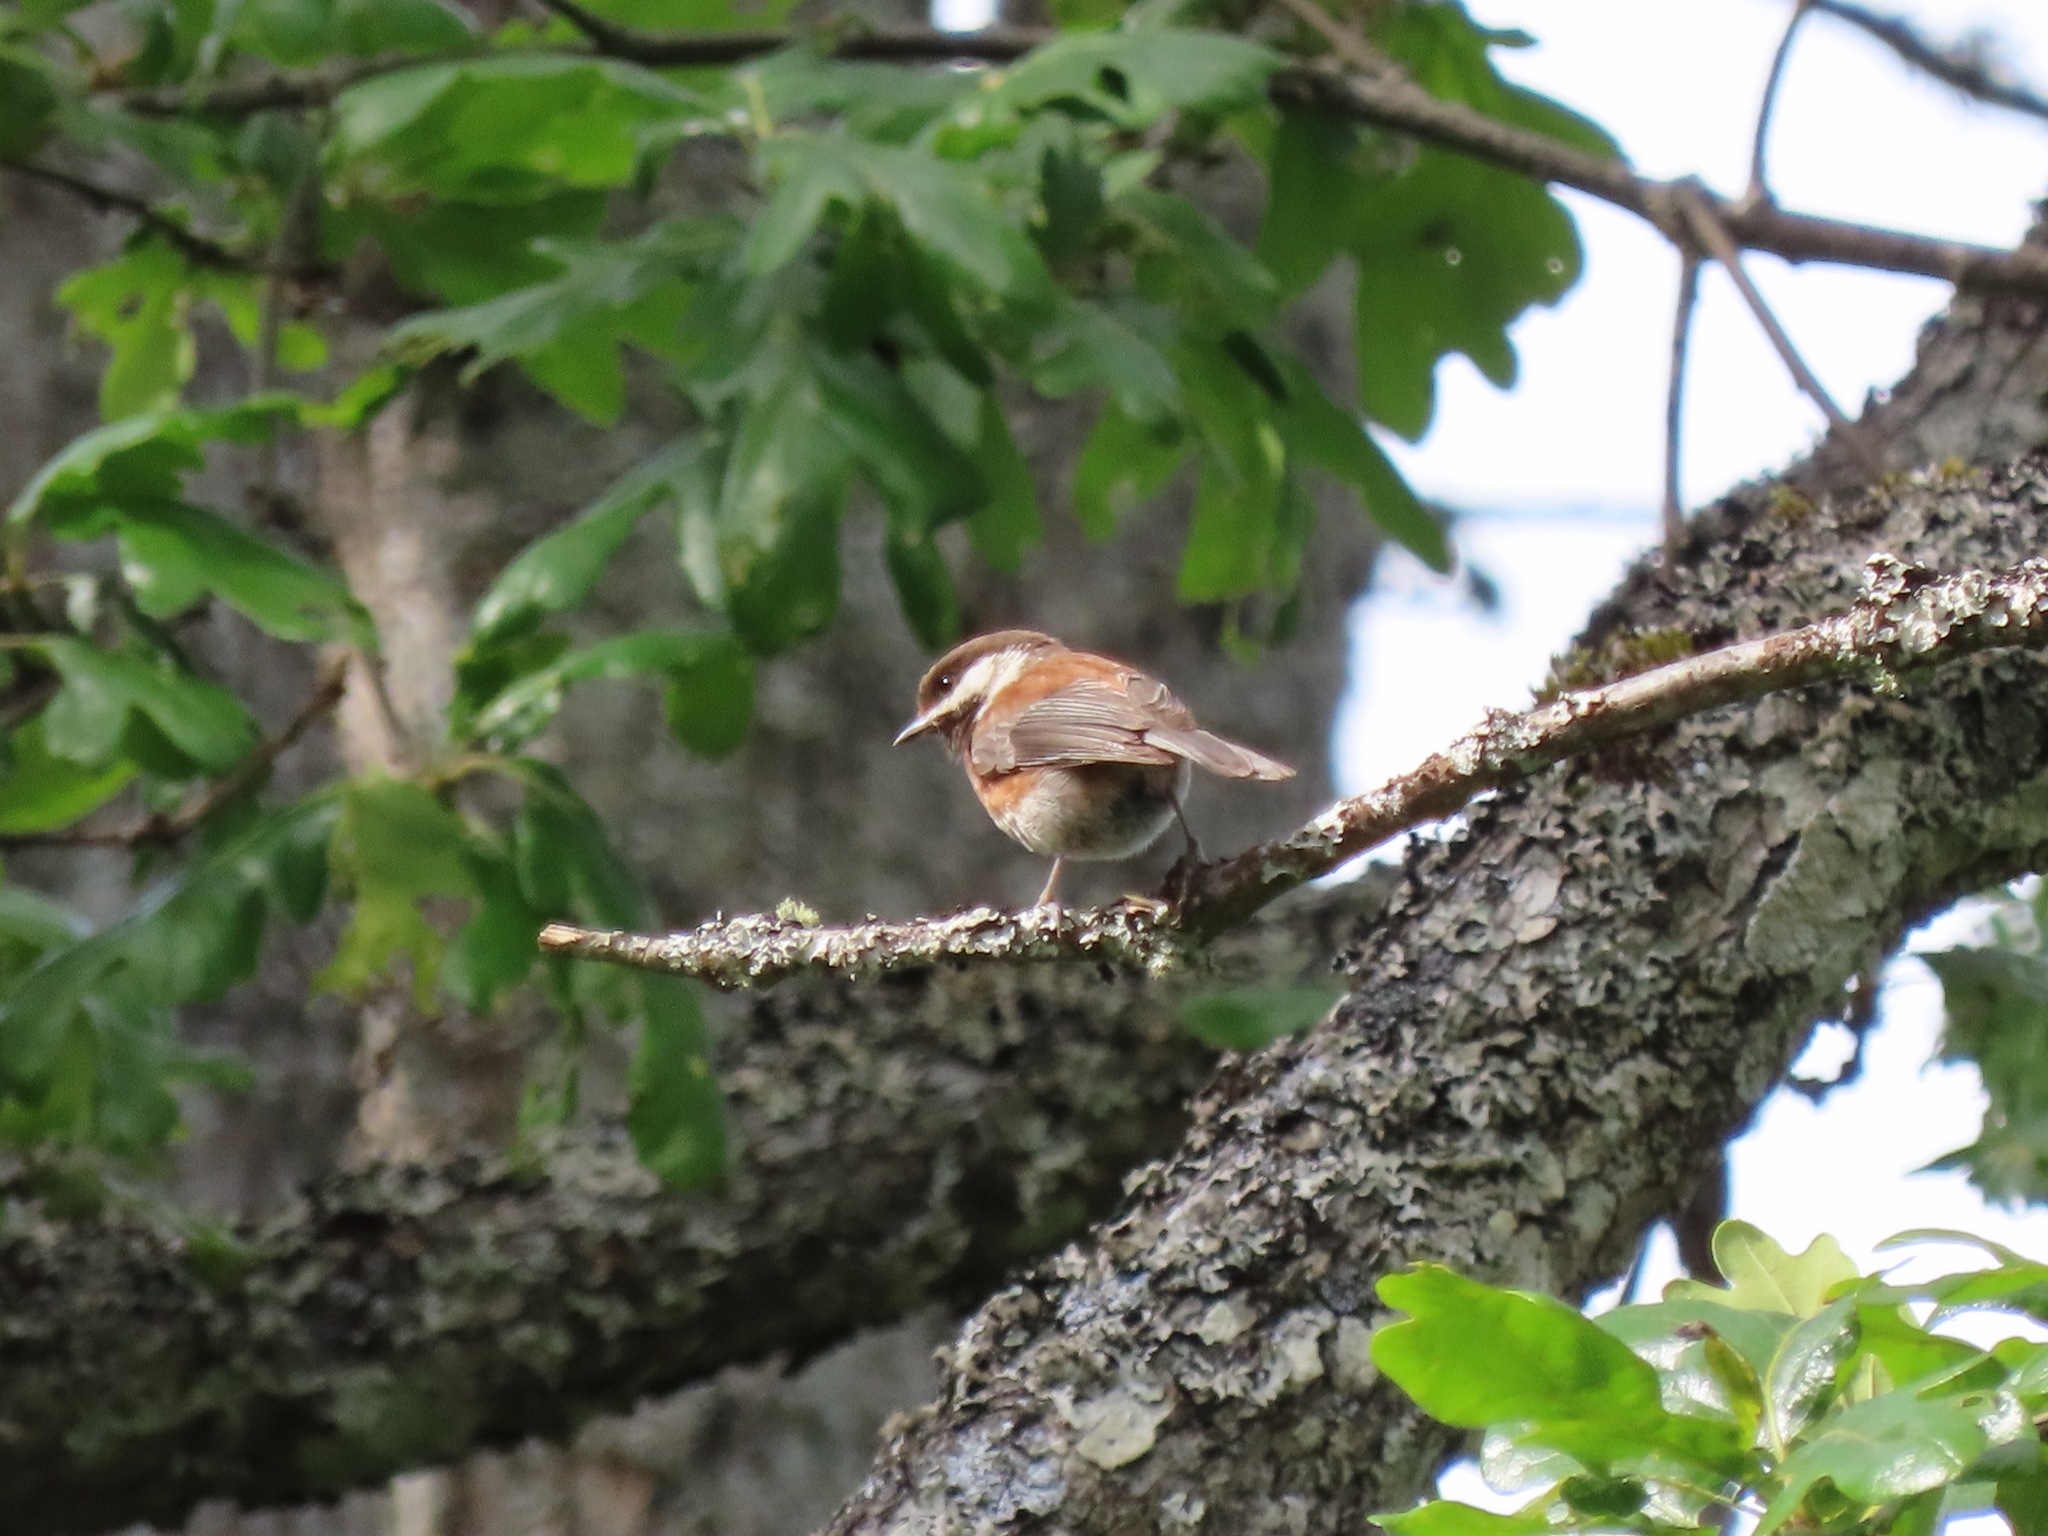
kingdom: Animalia
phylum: Chordata
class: Aves
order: Passeriformes
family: Paridae
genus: Poecile
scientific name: Poecile rufescens
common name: Chestnut-backed chickadee
